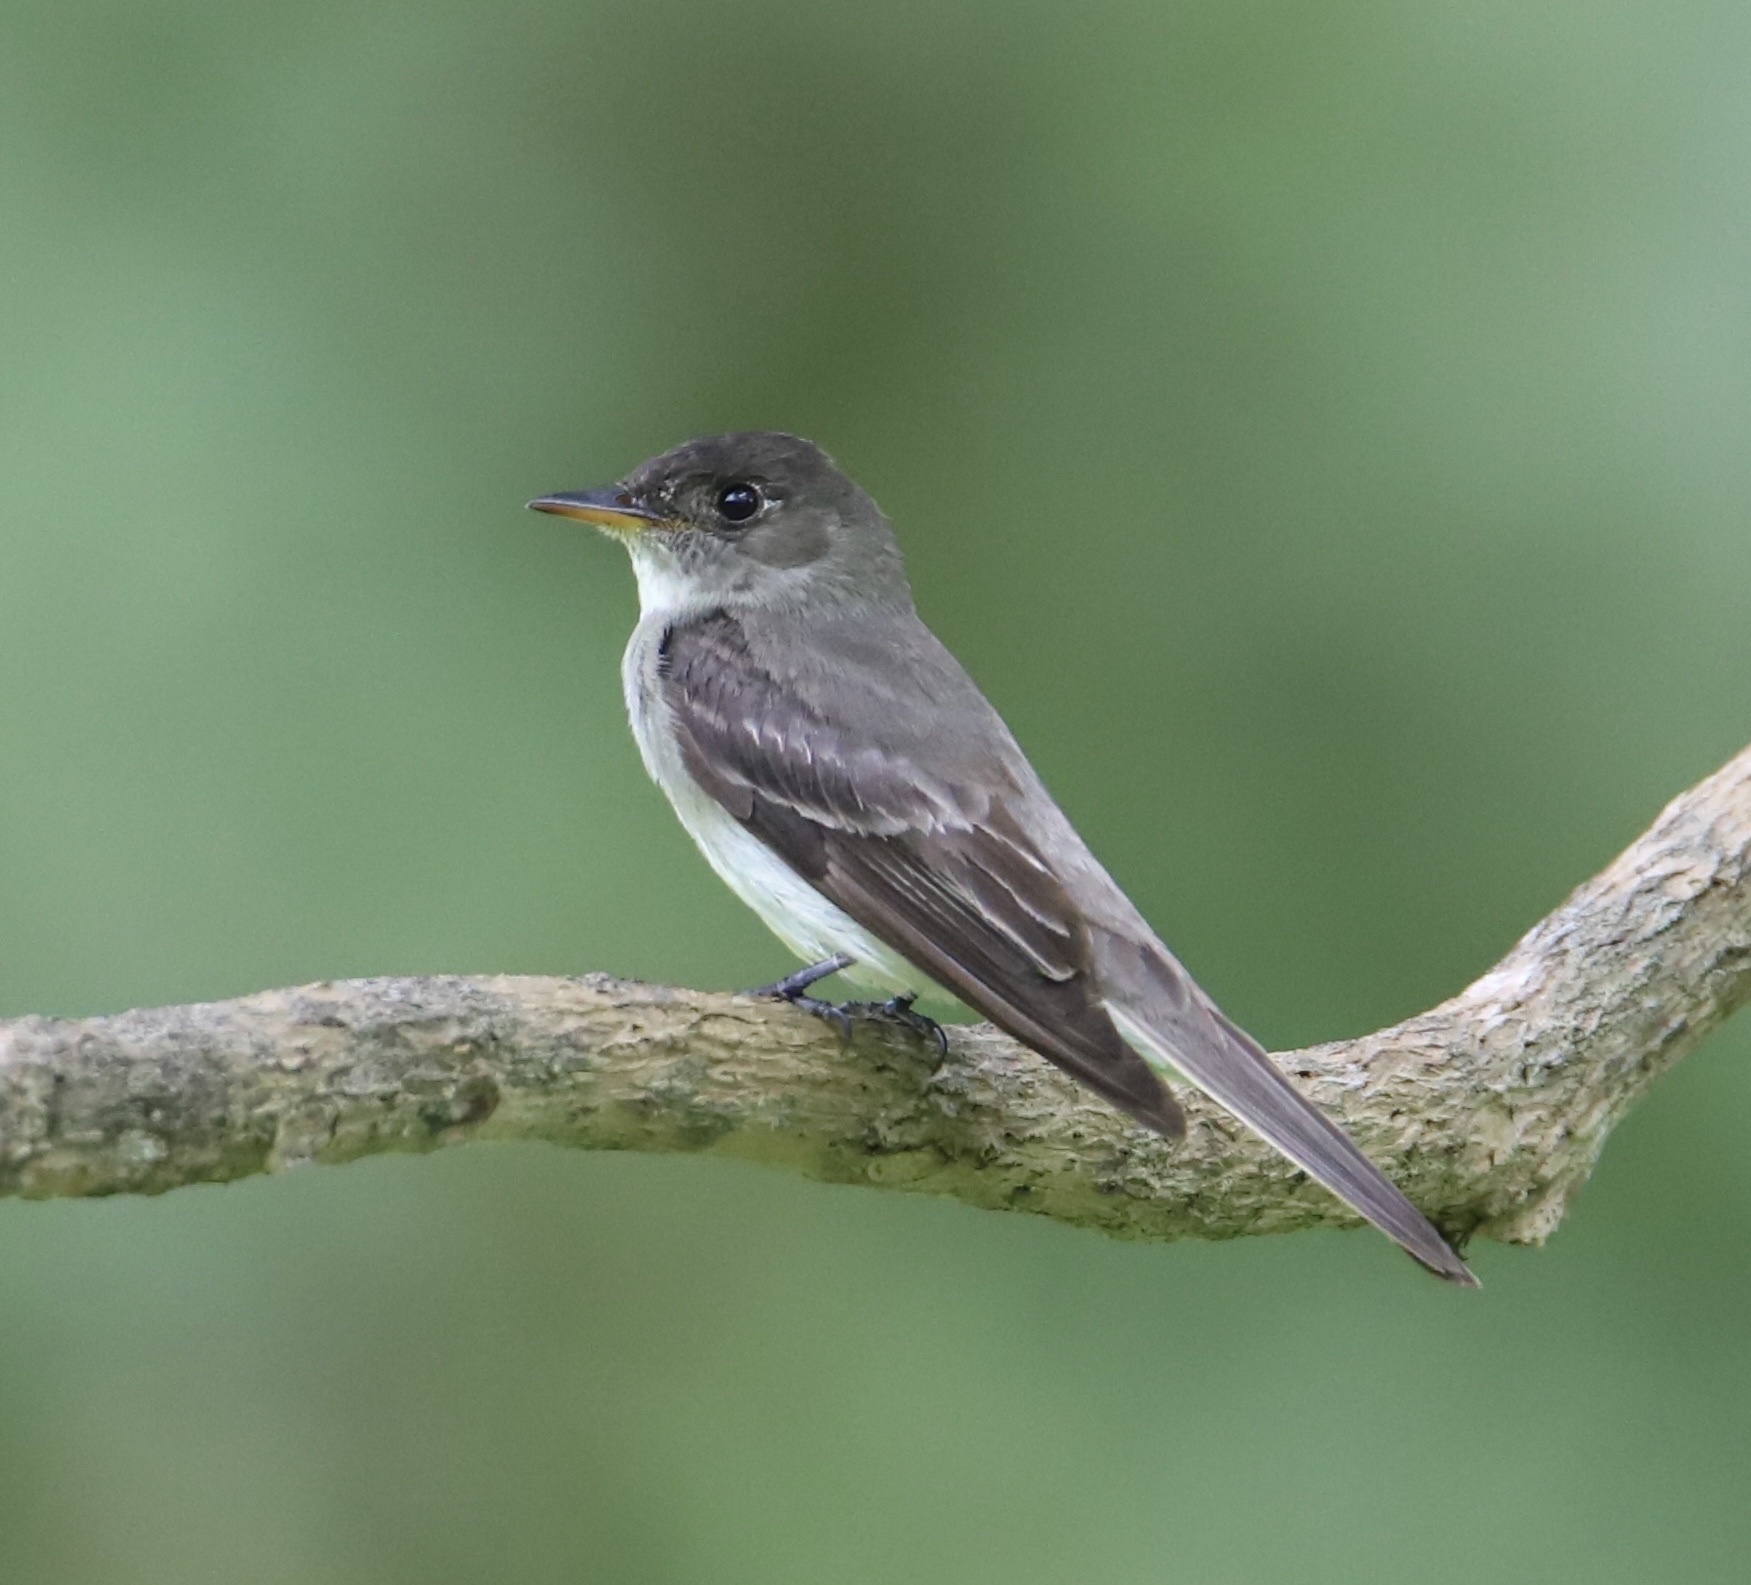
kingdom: Animalia
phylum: Chordata
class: Aves
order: Passeriformes
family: Tyrannidae
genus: Contopus
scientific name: Contopus virens
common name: Eastern wood-pewee
